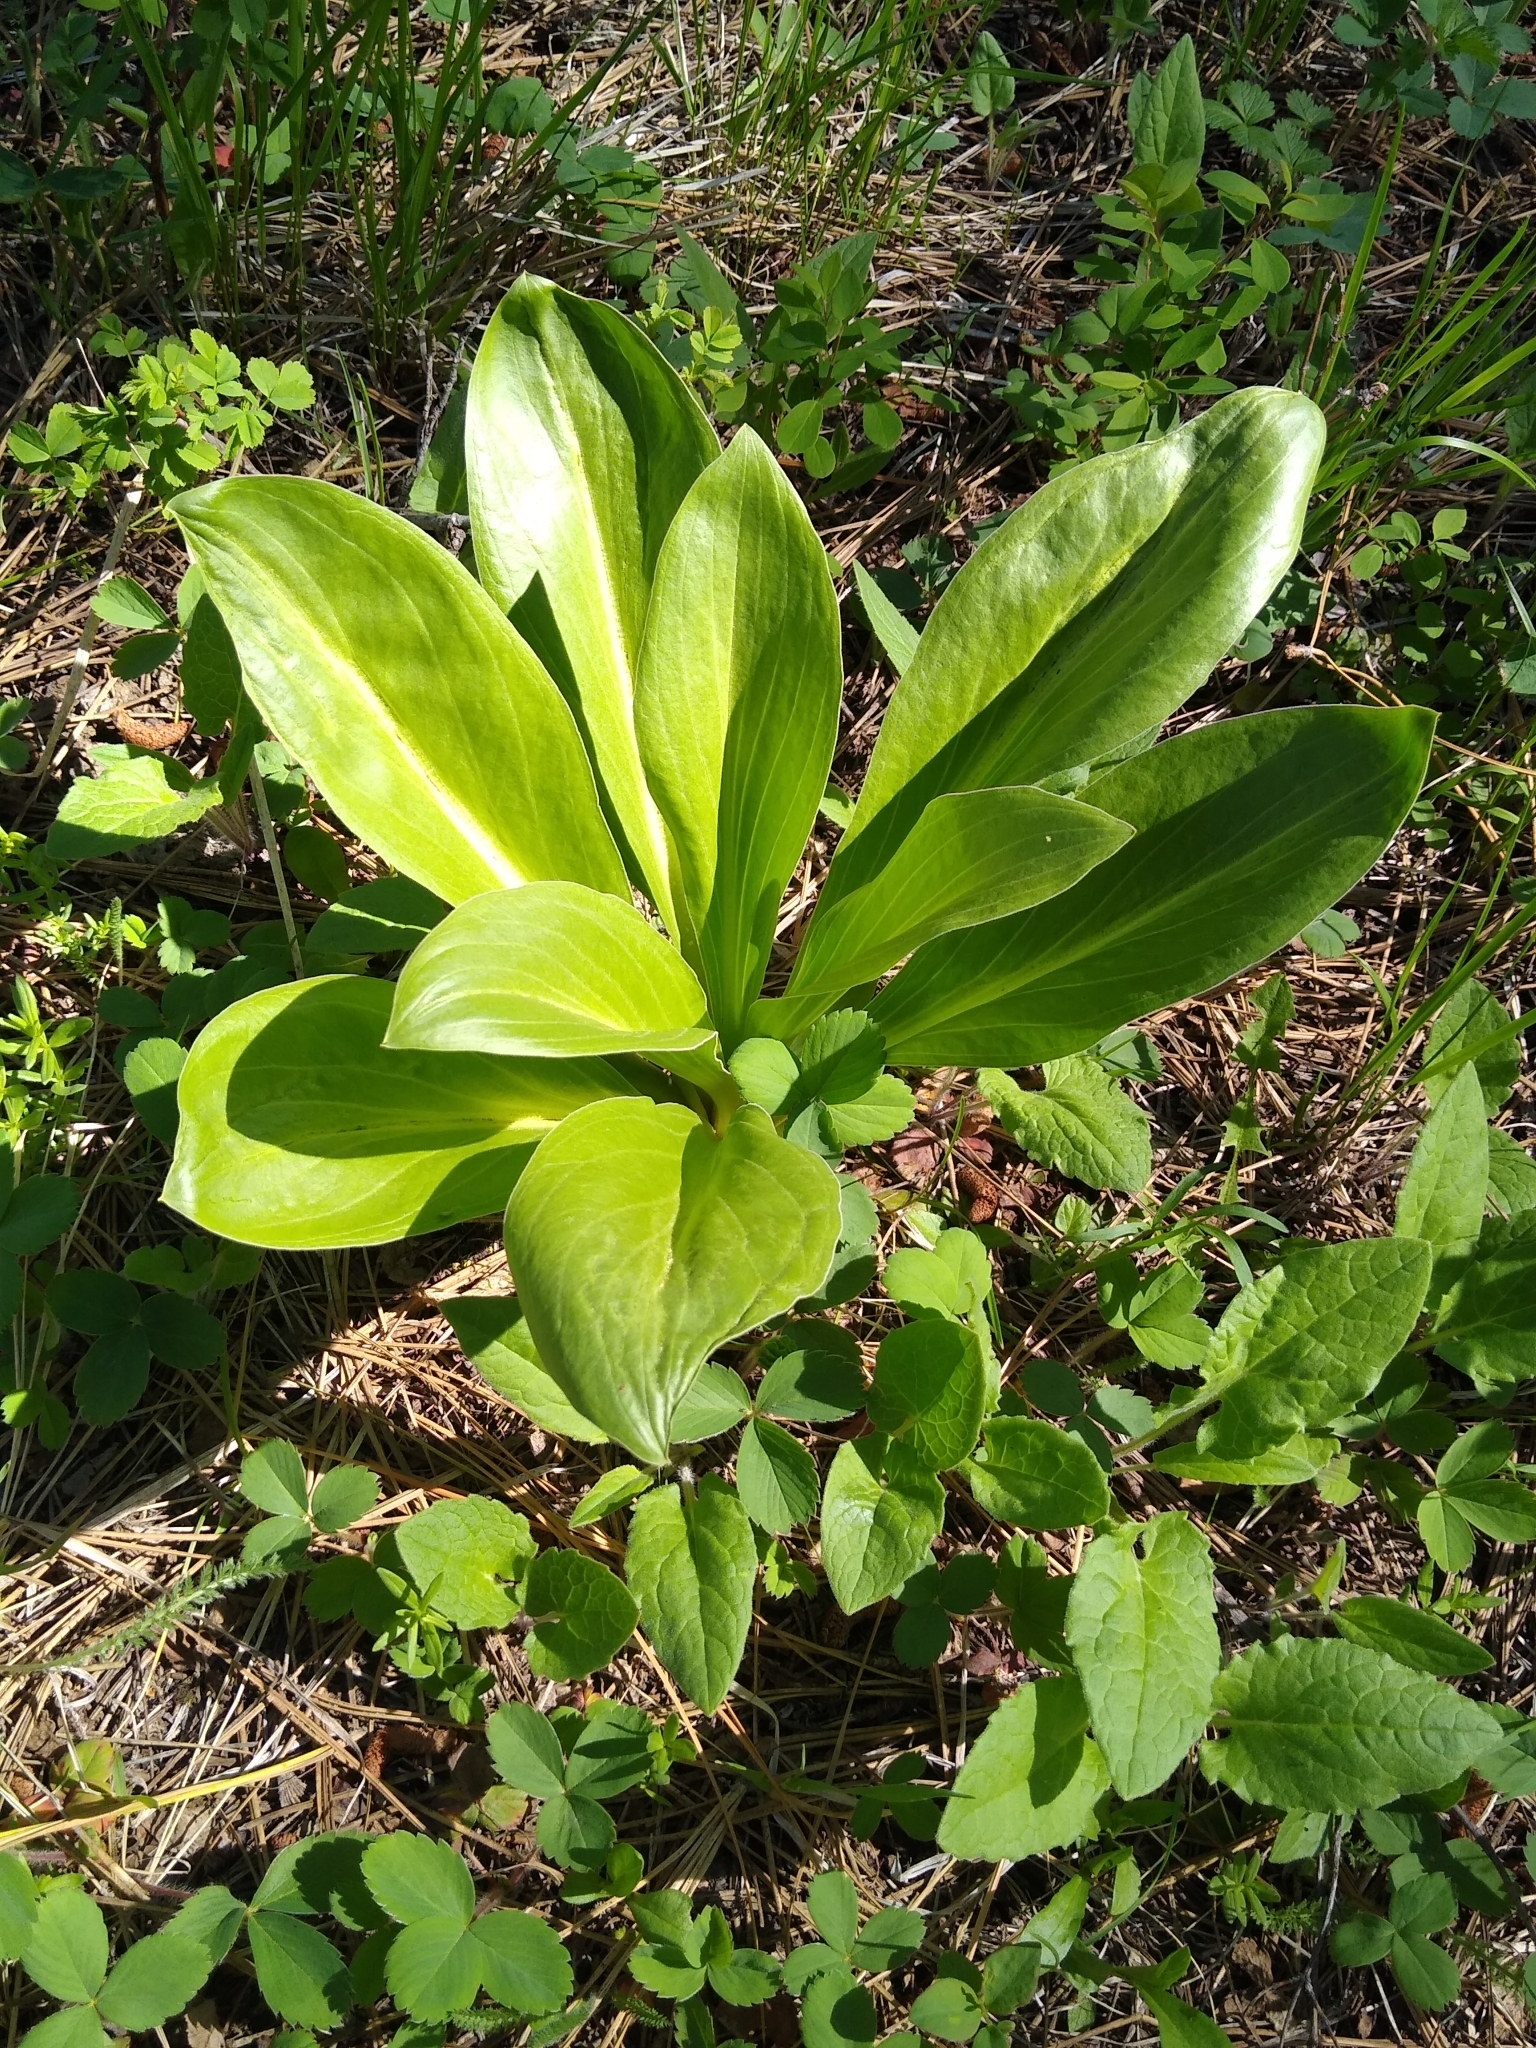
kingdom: Plantae
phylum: Tracheophyta
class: Magnoliopsida
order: Gentianales
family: Gentianaceae
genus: Frasera
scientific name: Frasera fastigiata
